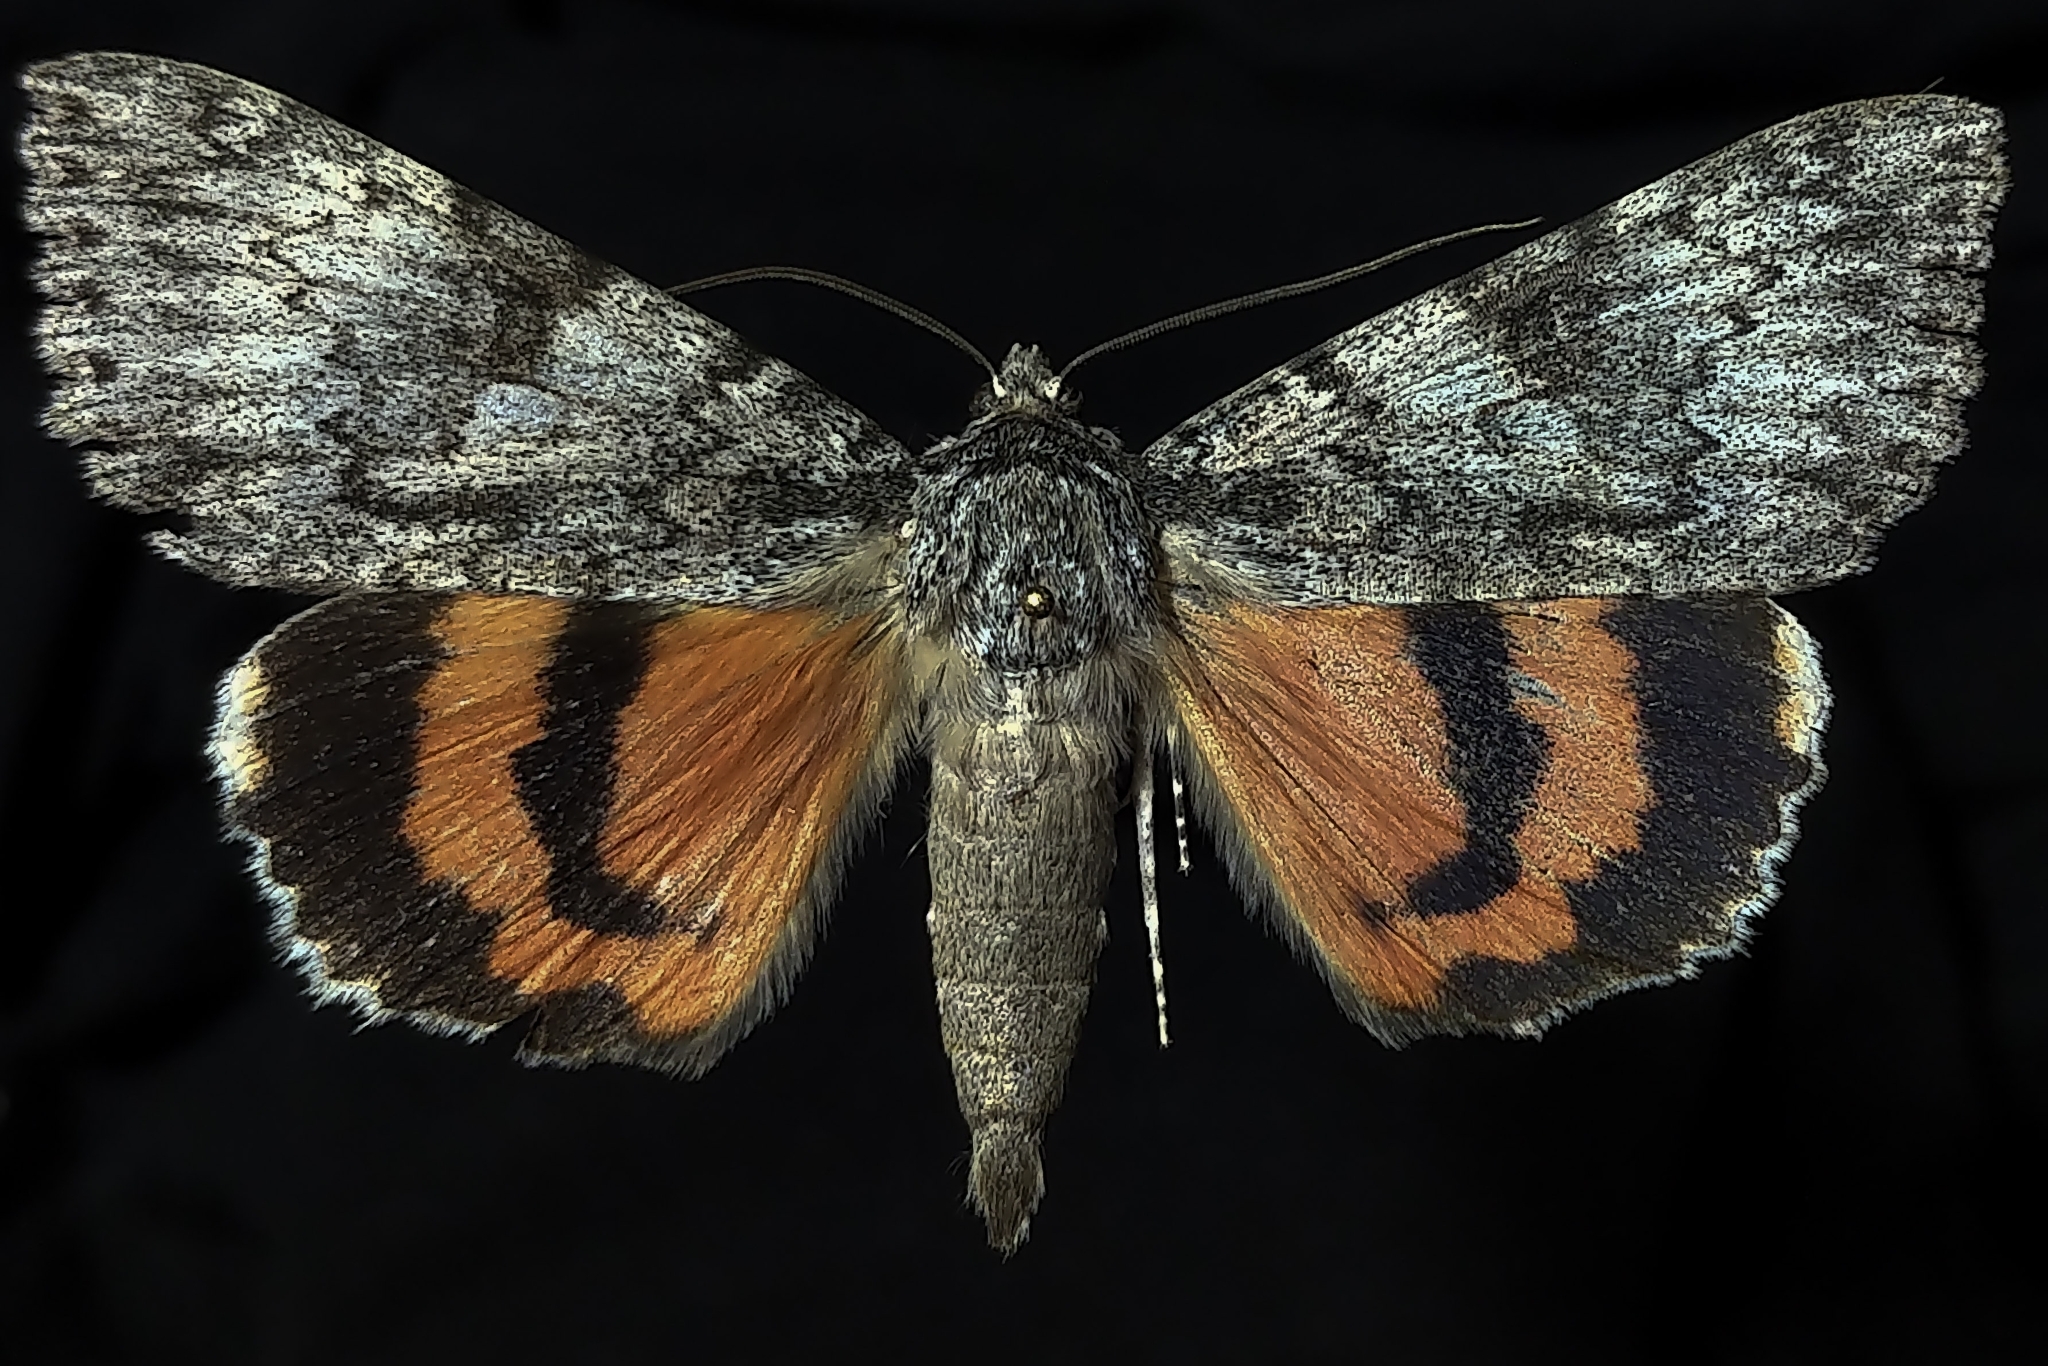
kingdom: Animalia
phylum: Arthropoda
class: Insecta
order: Lepidoptera
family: Erebidae
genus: Catocala
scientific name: Catocala meskei
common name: Meske's underwing moth
